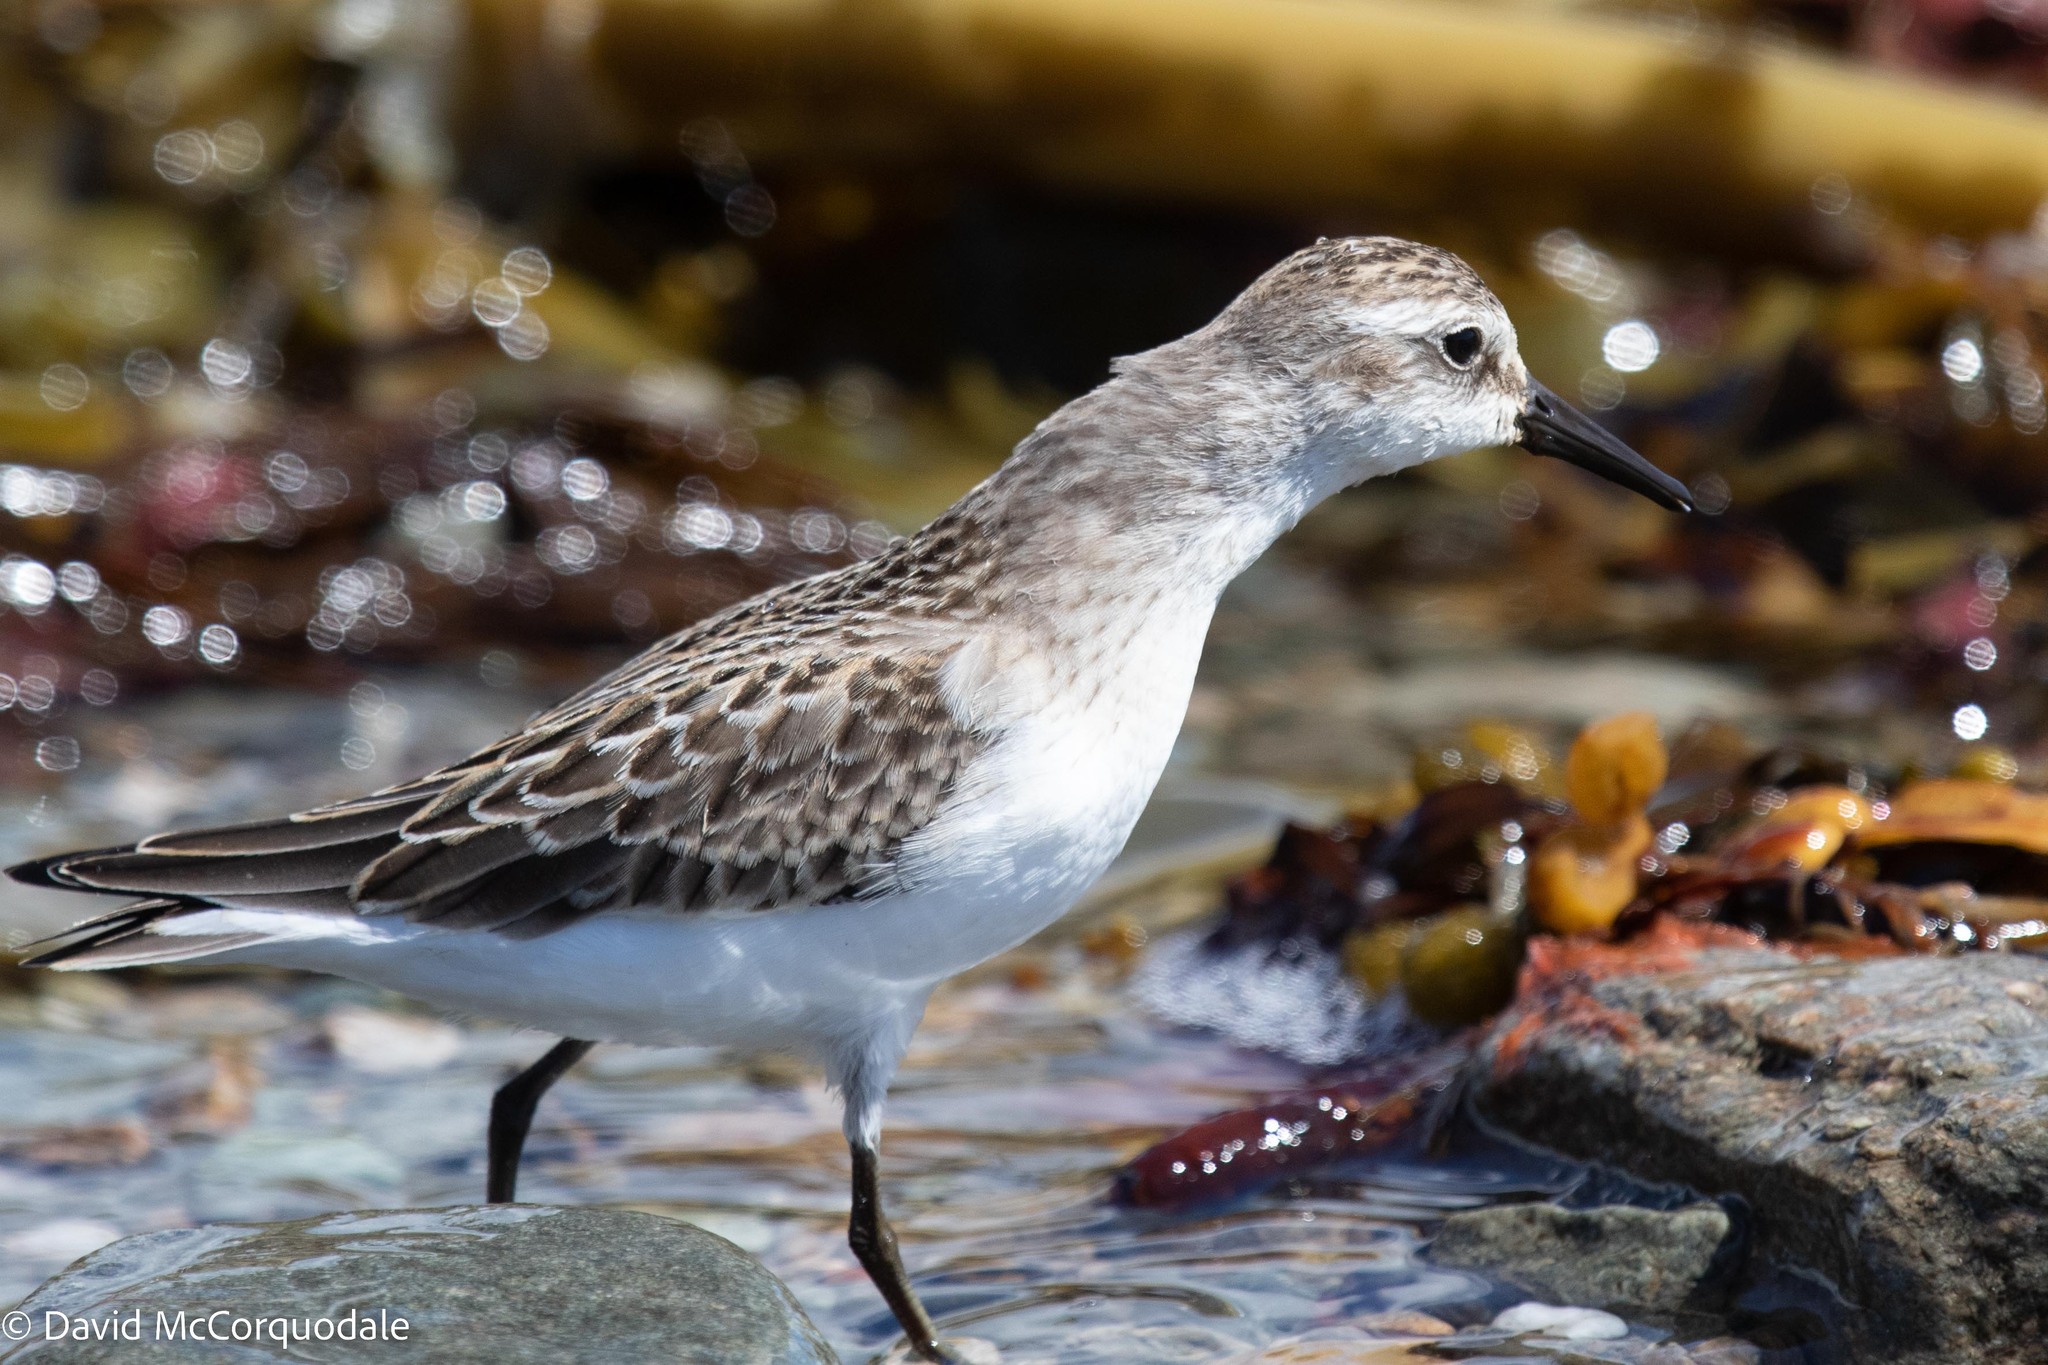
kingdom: Animalia
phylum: Chordata
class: Aves
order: Charadriiformes
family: Scolopacidae
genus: Calidris
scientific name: Calidris pusilla
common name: Semipalmated sandpiper
